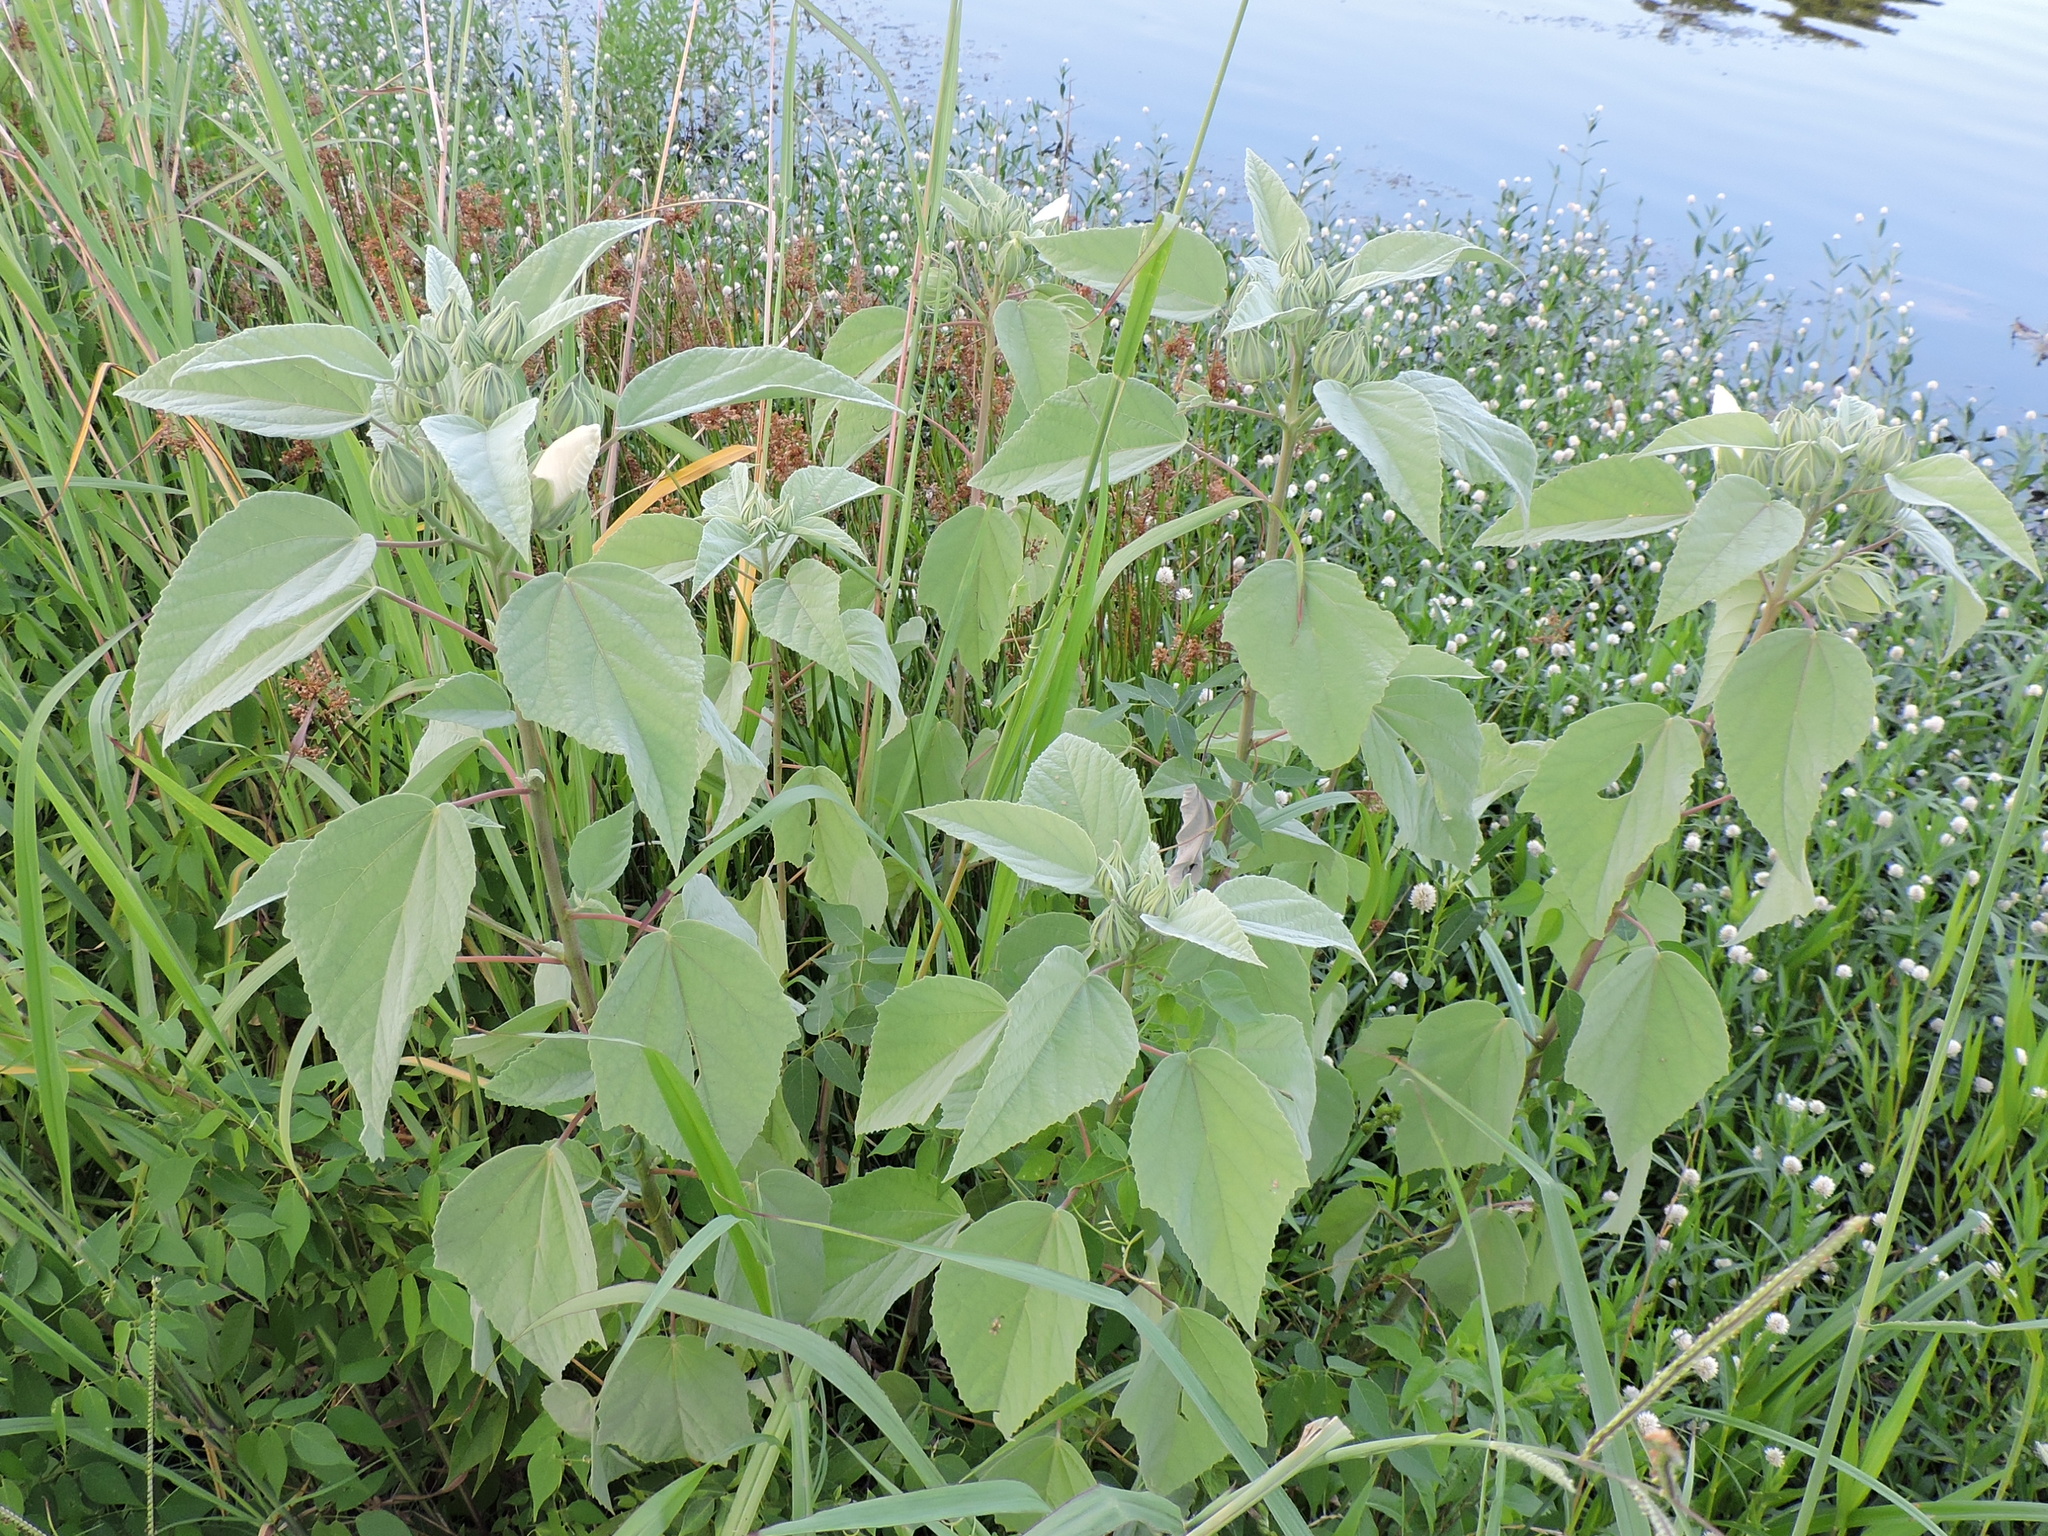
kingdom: Plantae
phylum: Tracheophyta
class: Magnoliopsida
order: Malvales
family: Malvaceae
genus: Hibiscus
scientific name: Hibiscus moscheutos
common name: Common rose-mallow
